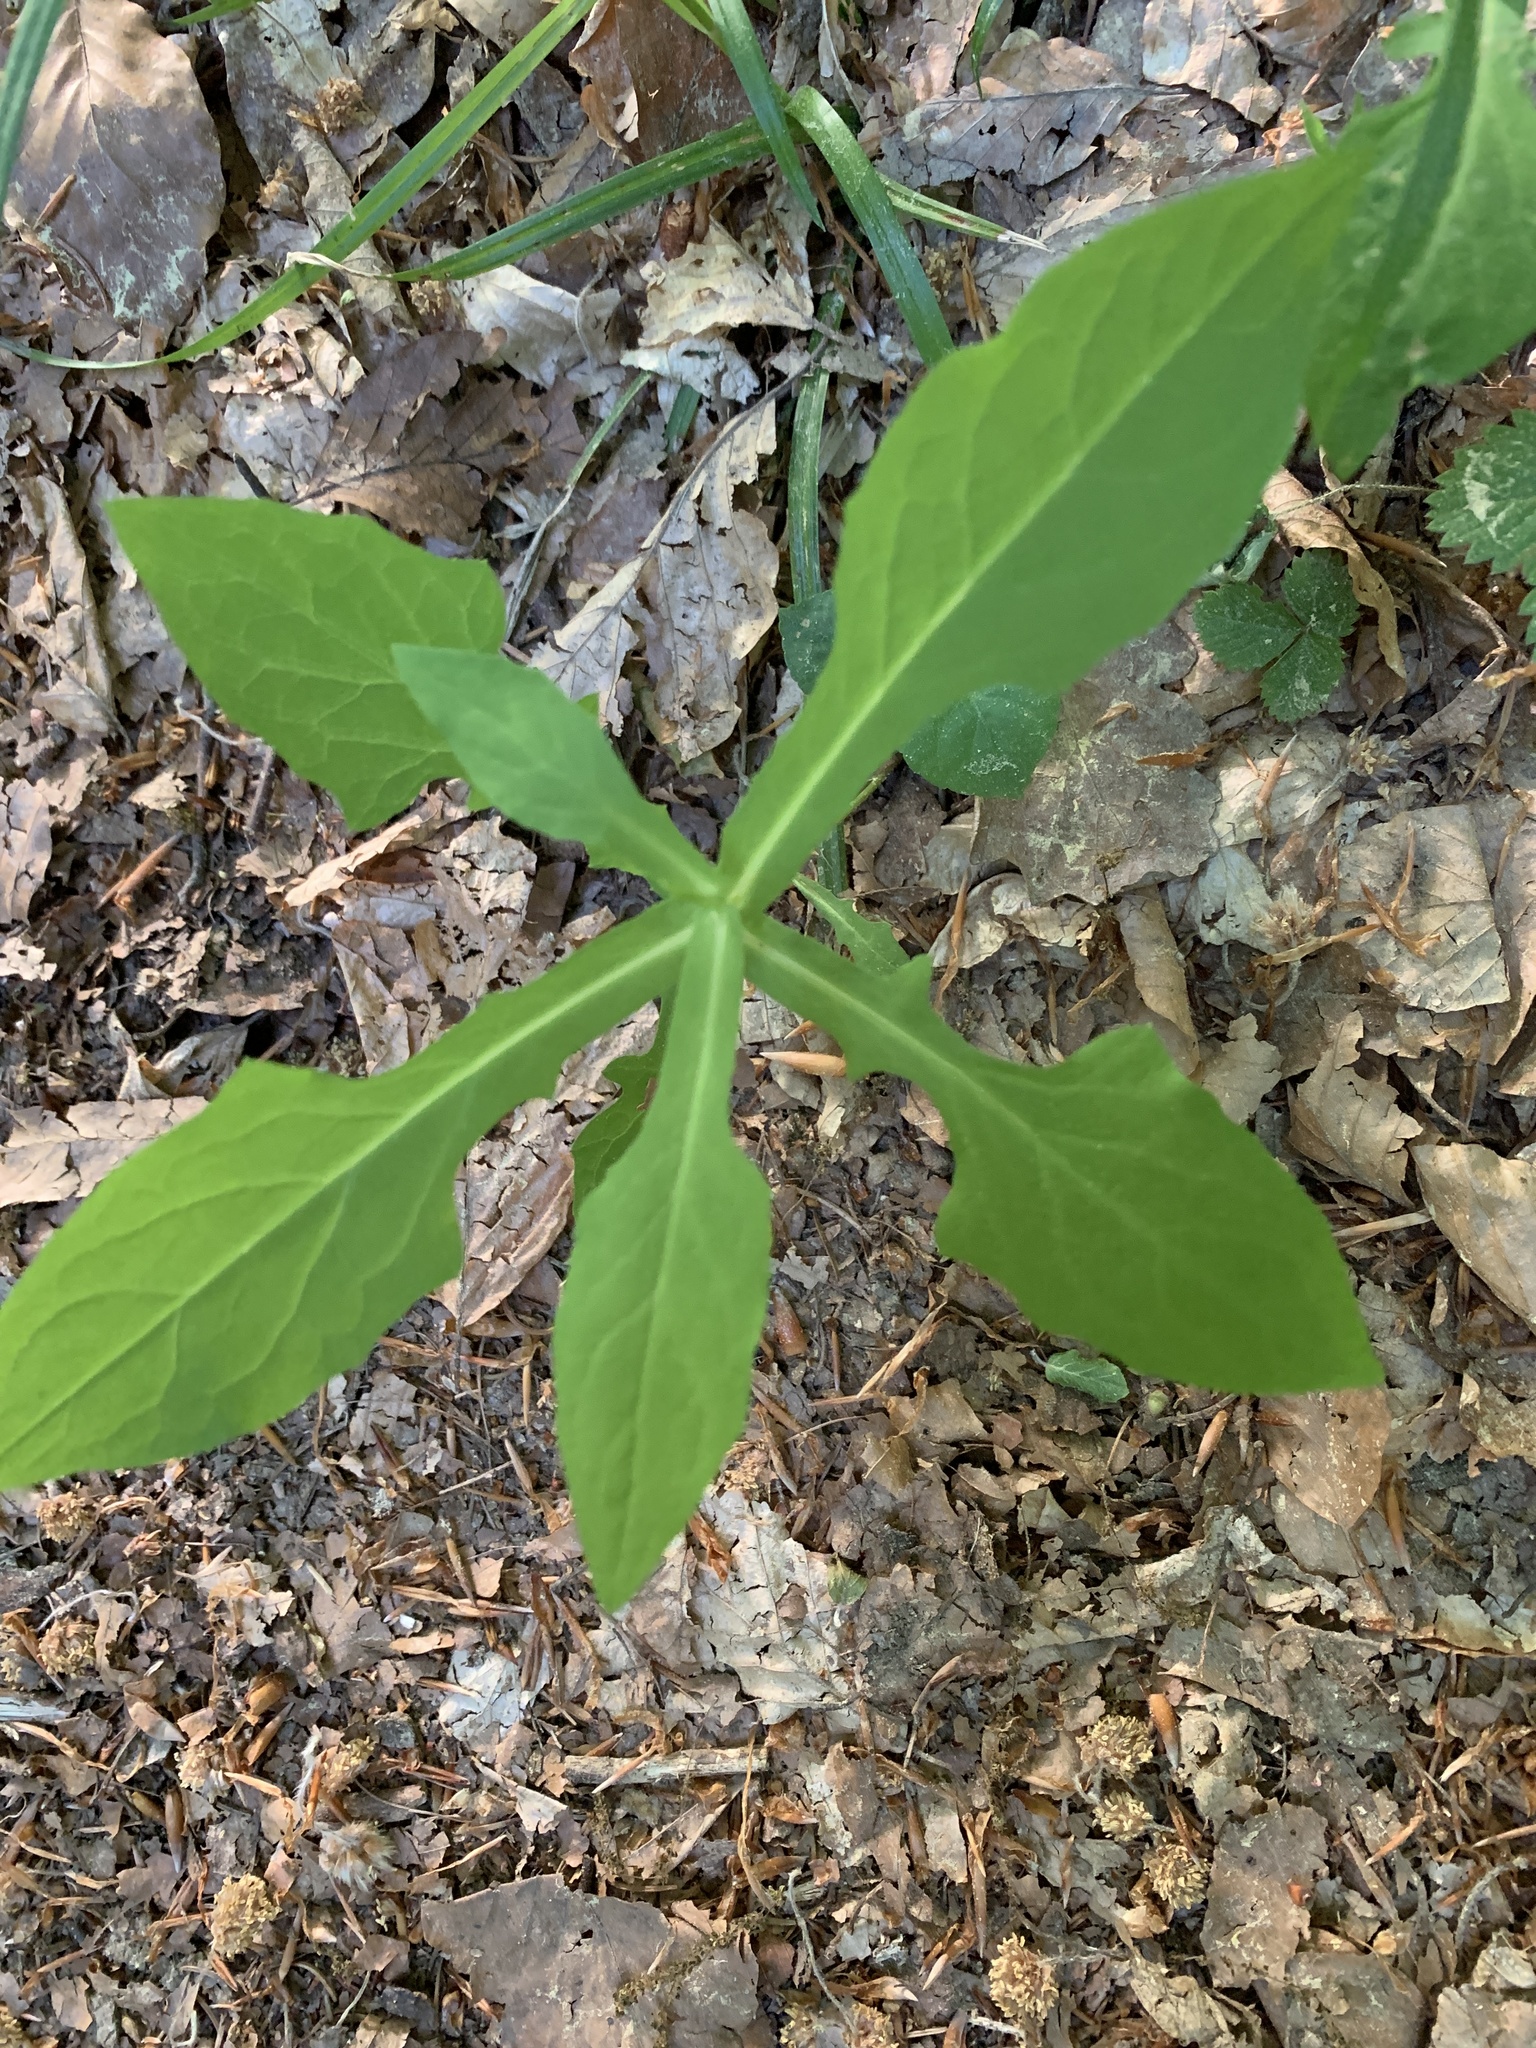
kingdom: Plantae
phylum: Tracheophyta
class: Magnoliopsida
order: Asterales
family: Asteraceae
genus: Prenanthes
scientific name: Prenanthes purpurea
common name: Purple lettuce
